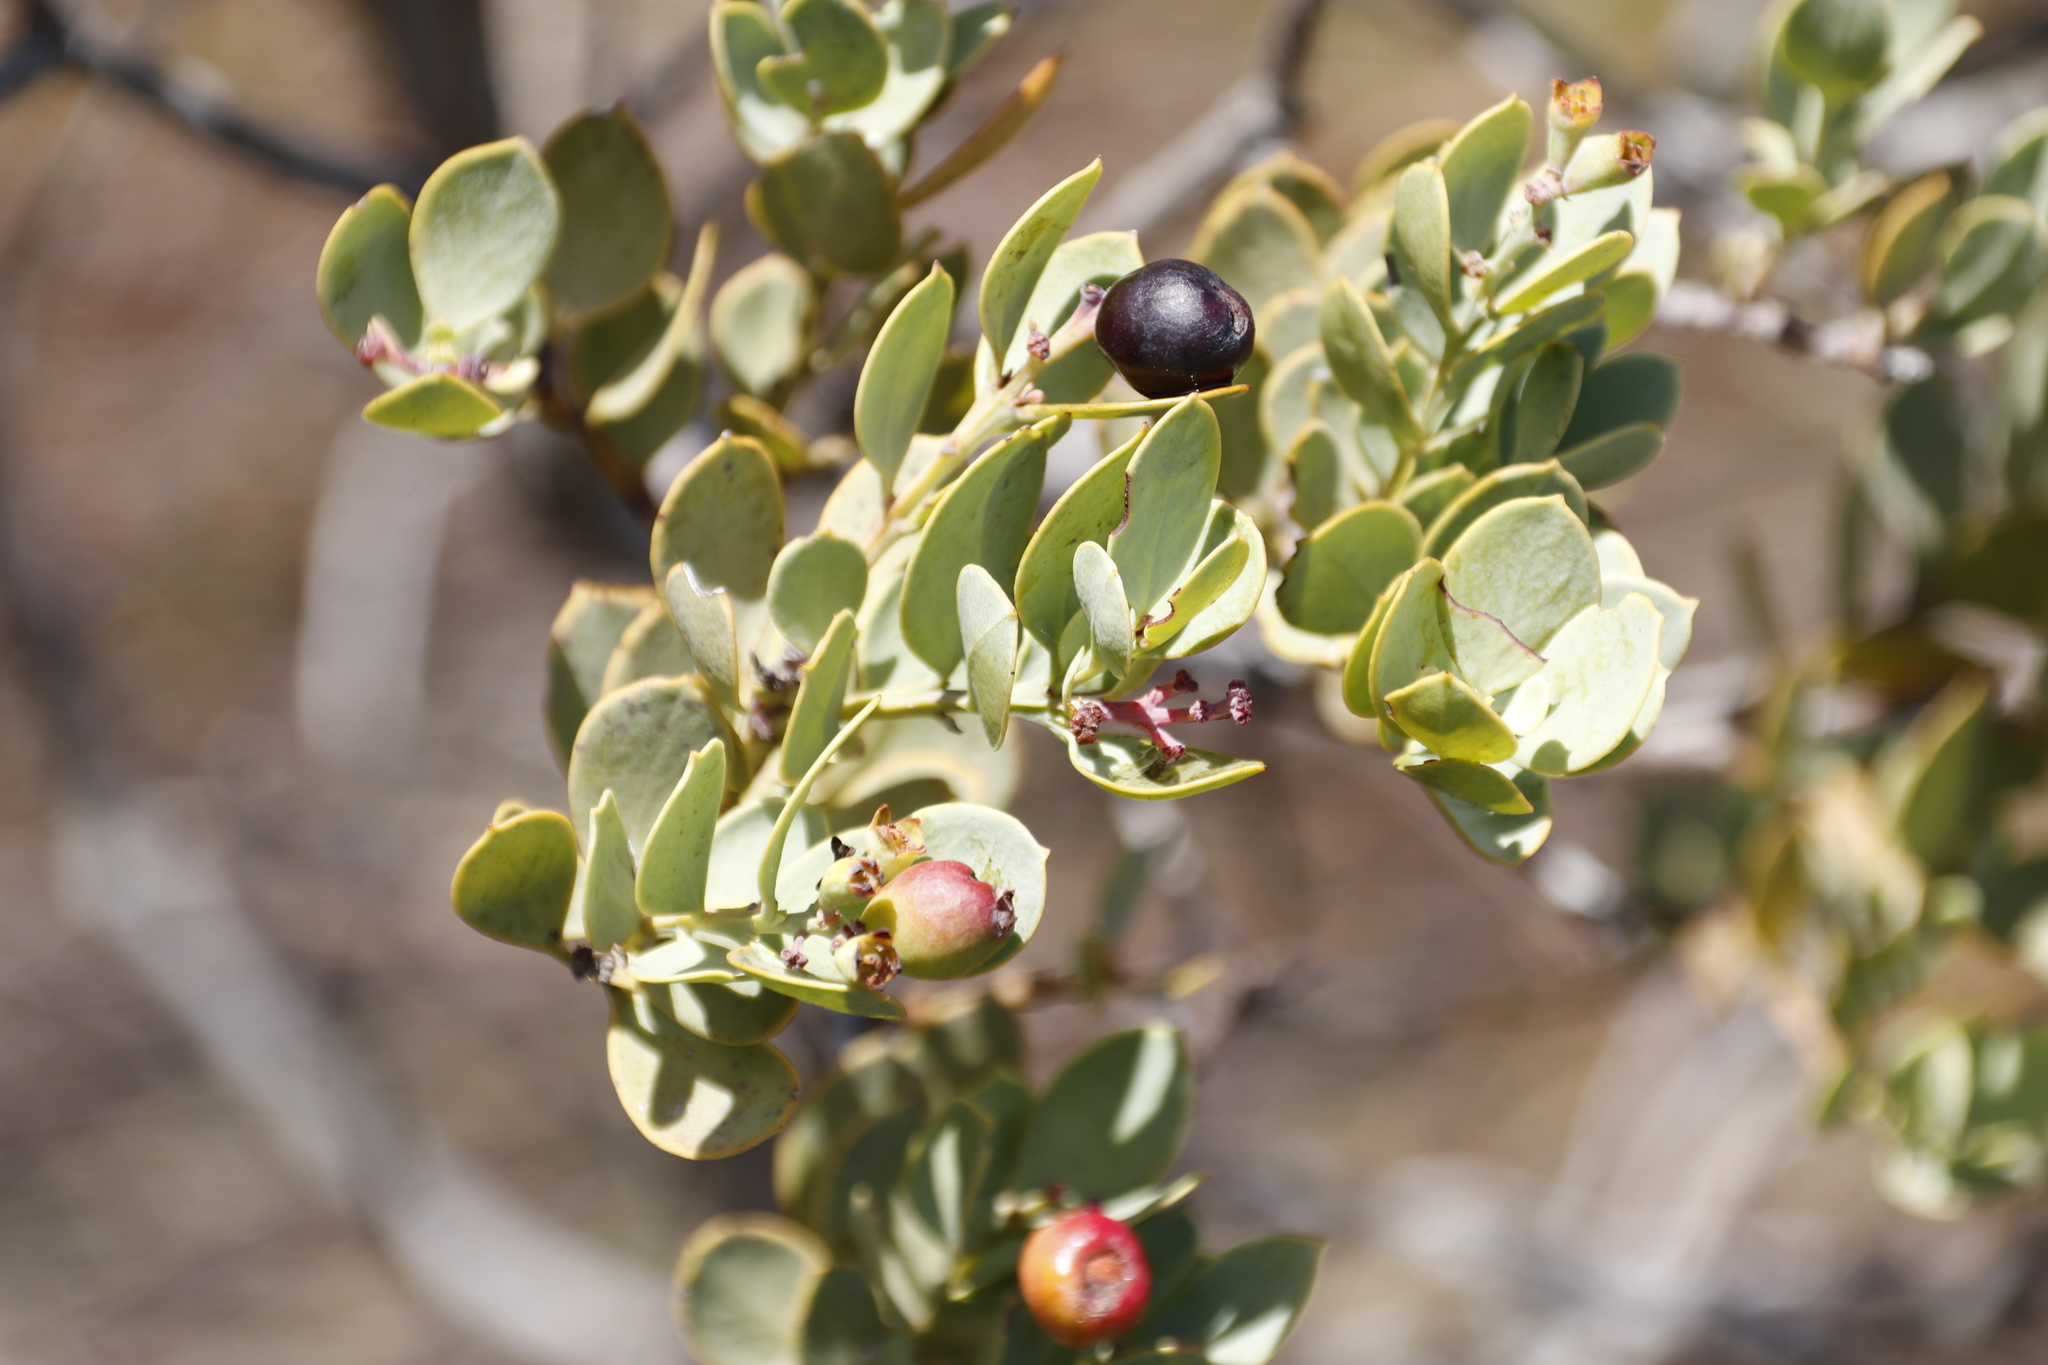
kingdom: Plantae
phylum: Tracheophyta
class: Magnoliopsida
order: Santalales
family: Santalaceae
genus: Osyris
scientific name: Osyris compressa
